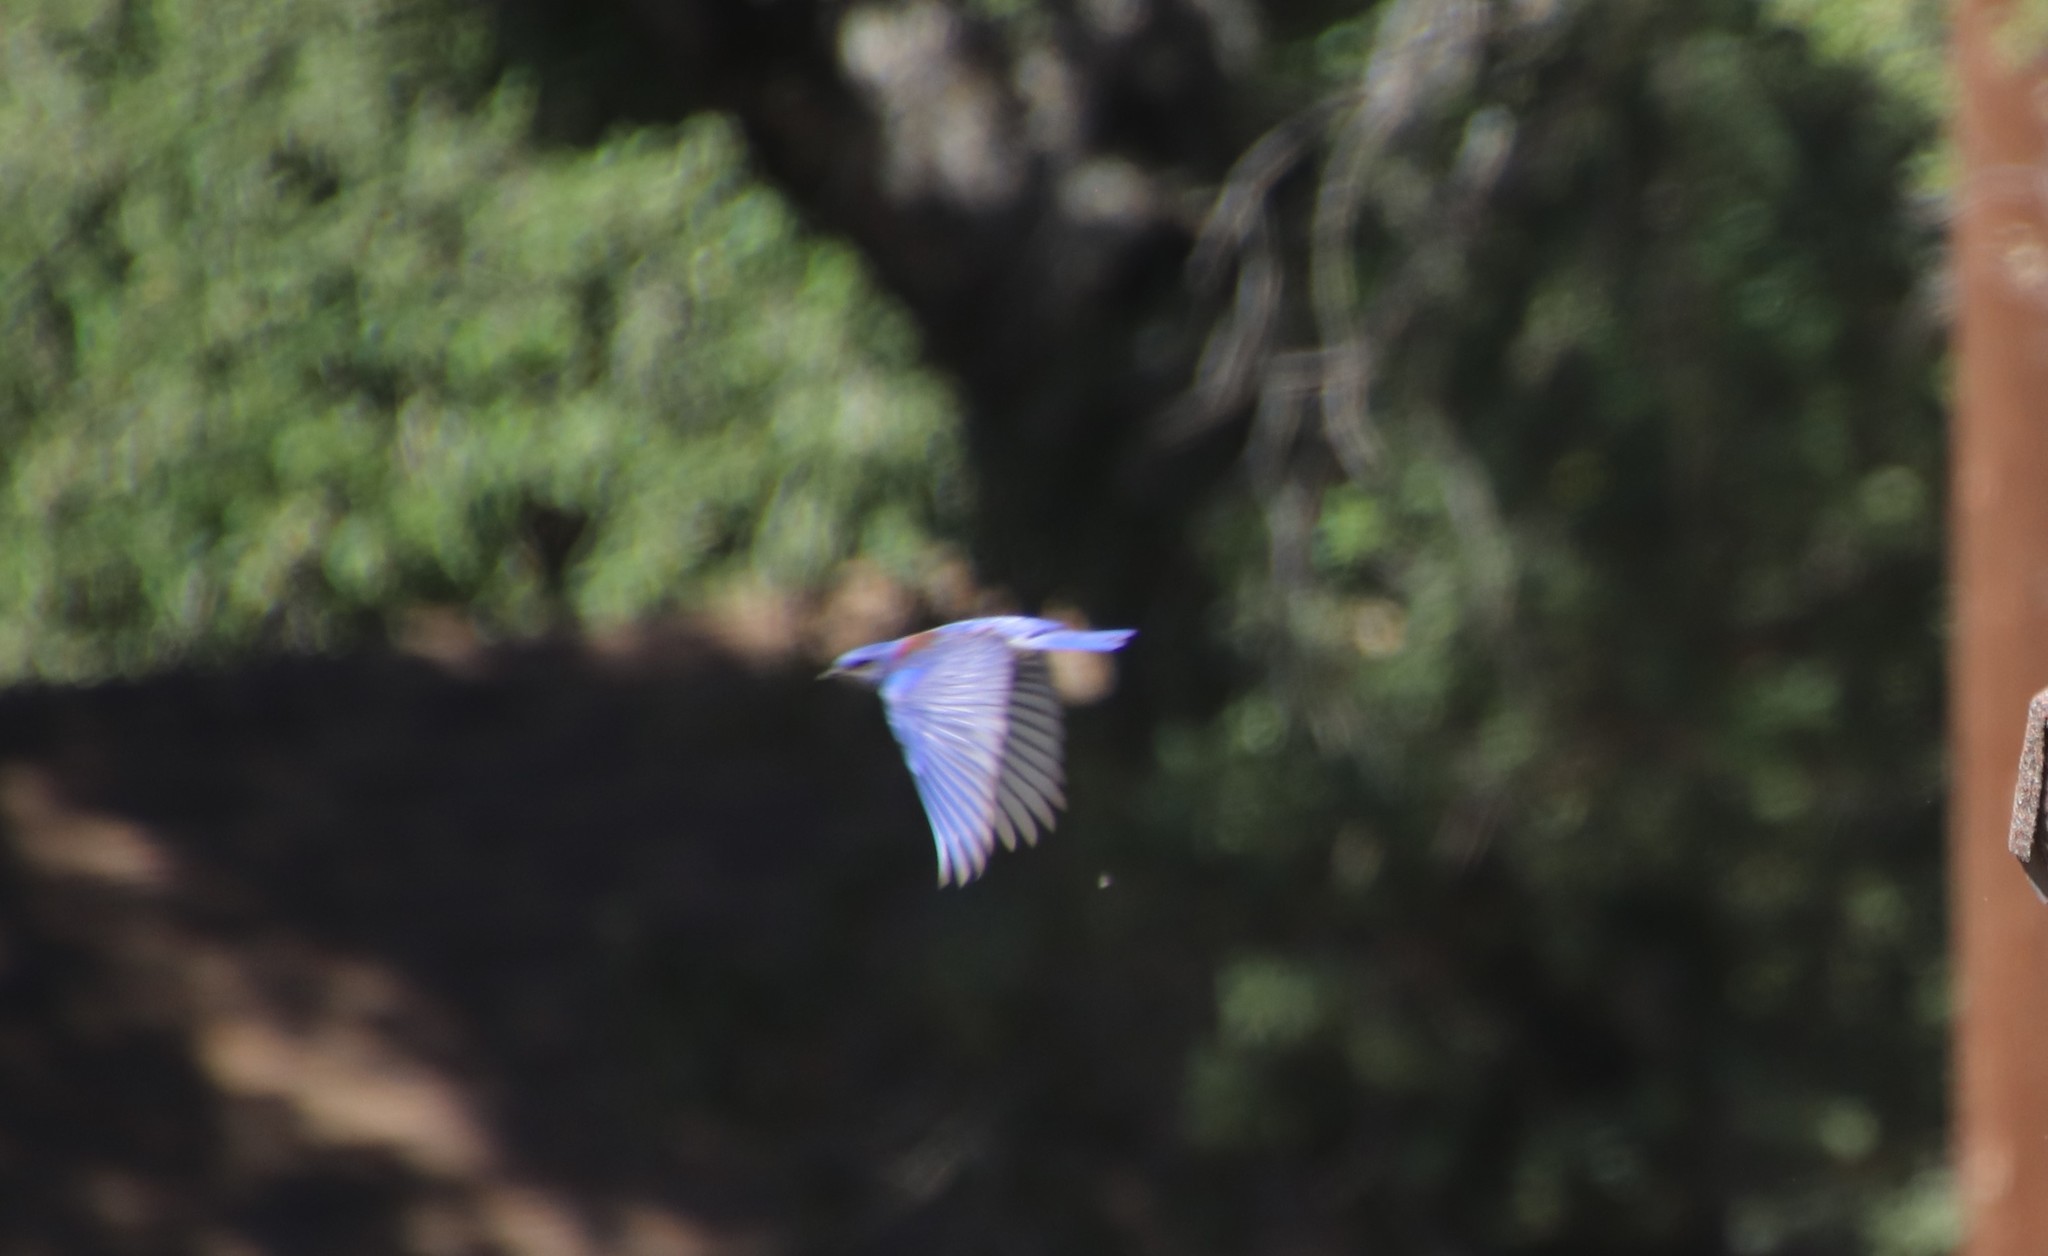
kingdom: Animalia
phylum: Chordata
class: Aves
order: Passeriformes
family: Turdidae
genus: Sialia
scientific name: Sialia mexicana
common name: Western bluebird
